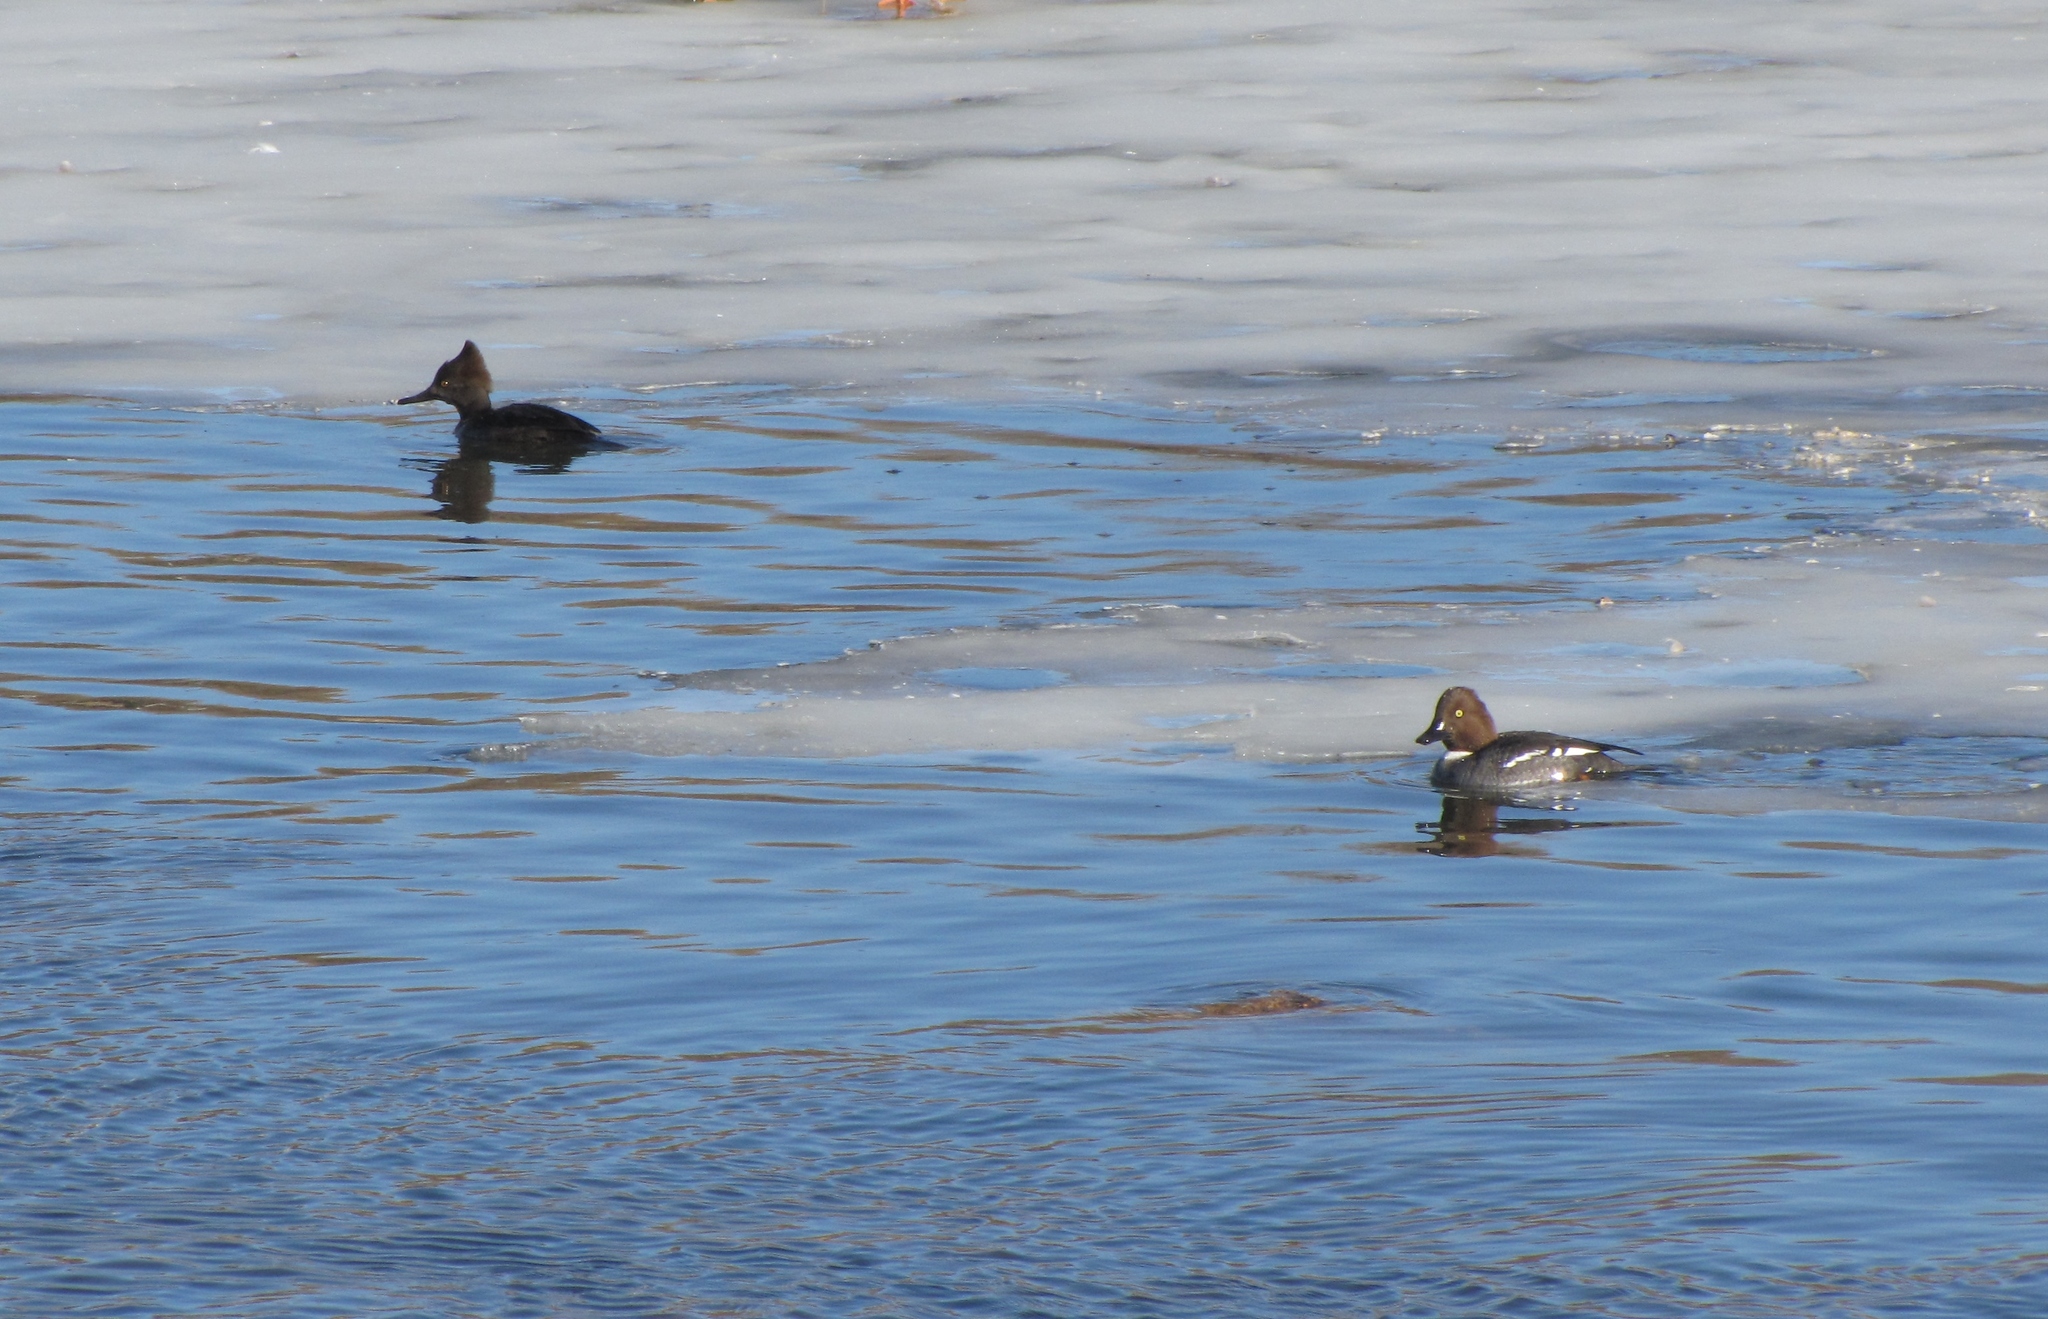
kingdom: Animalia
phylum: Chordata
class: Aves
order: Anseriformes
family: Anatidae
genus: Bucephala
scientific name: Bucephala clangula
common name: Common goldeneye
